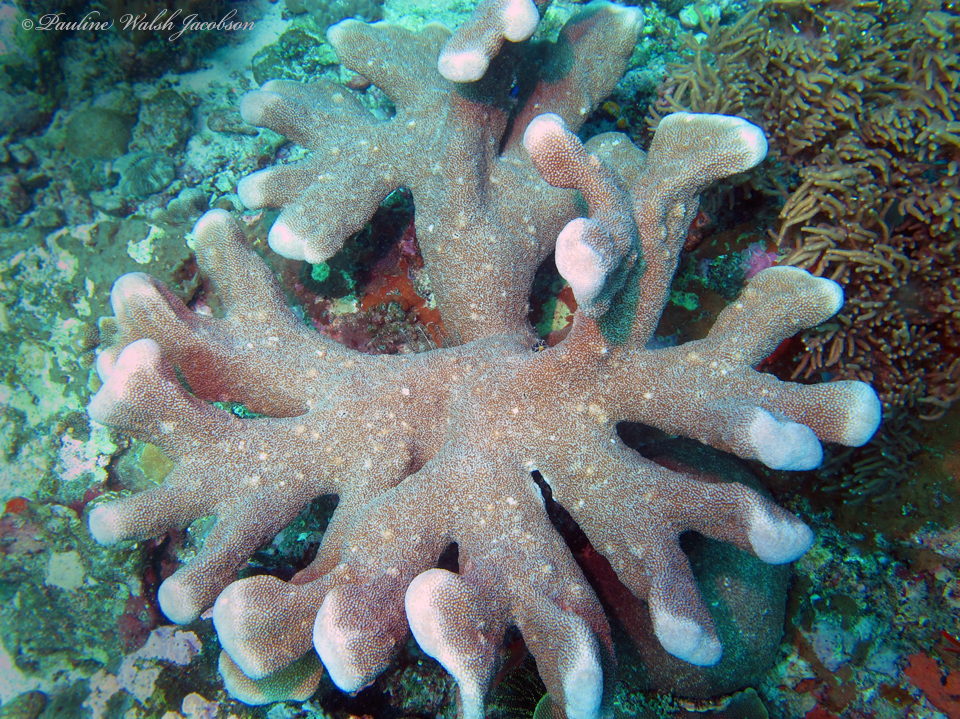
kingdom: Animalia
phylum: Cnidaria
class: Anthozoa
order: Scleractinia
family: Acroporidae
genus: Isopora
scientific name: Isopora palifera
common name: Catch bowl coral
